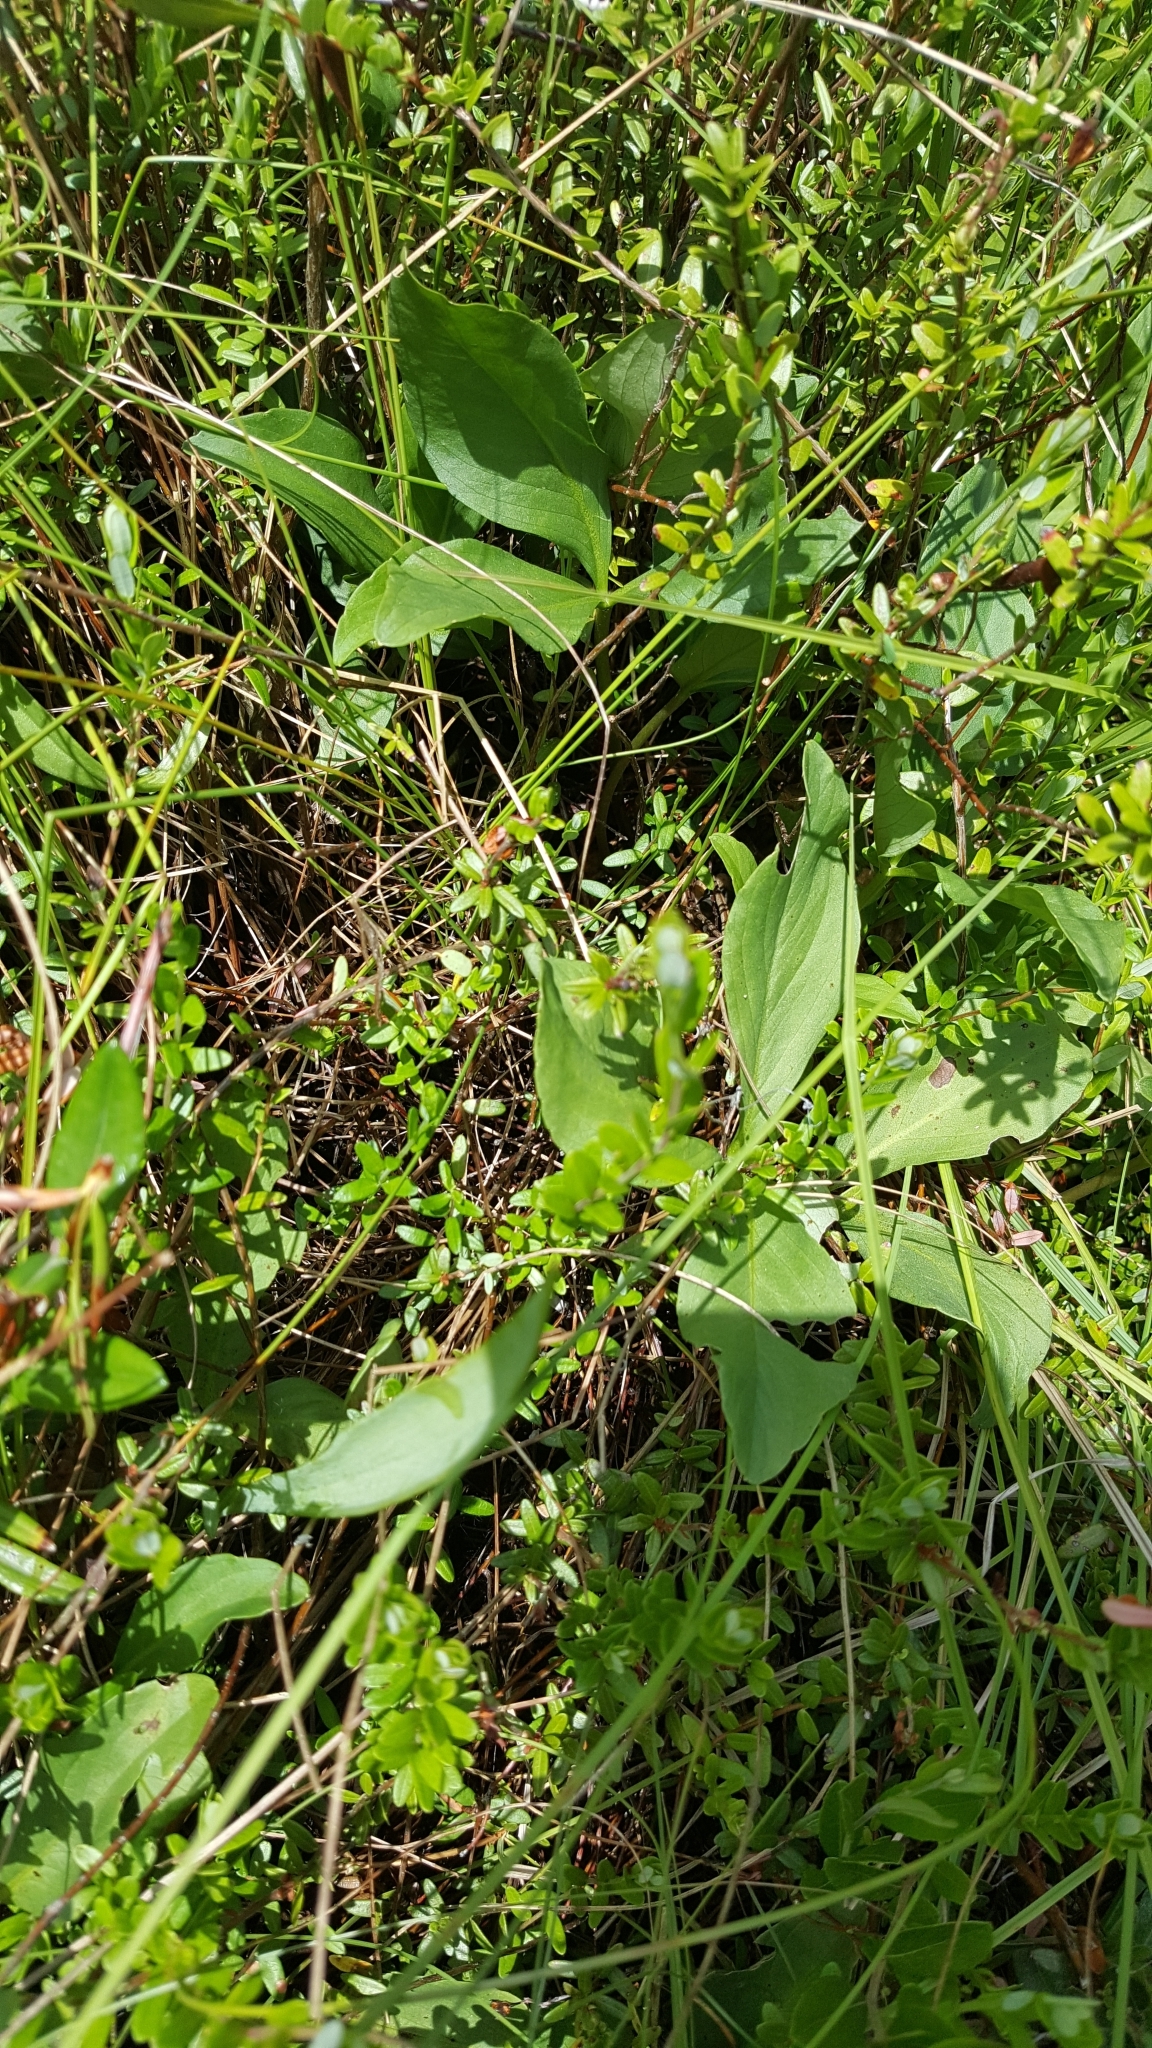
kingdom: Plantae
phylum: Tracheophyta
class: Magnoliopsida
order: Asterales
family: Menyanthaceae
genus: Menyanthes
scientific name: Menyanthes trifoliata
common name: Bogbean
